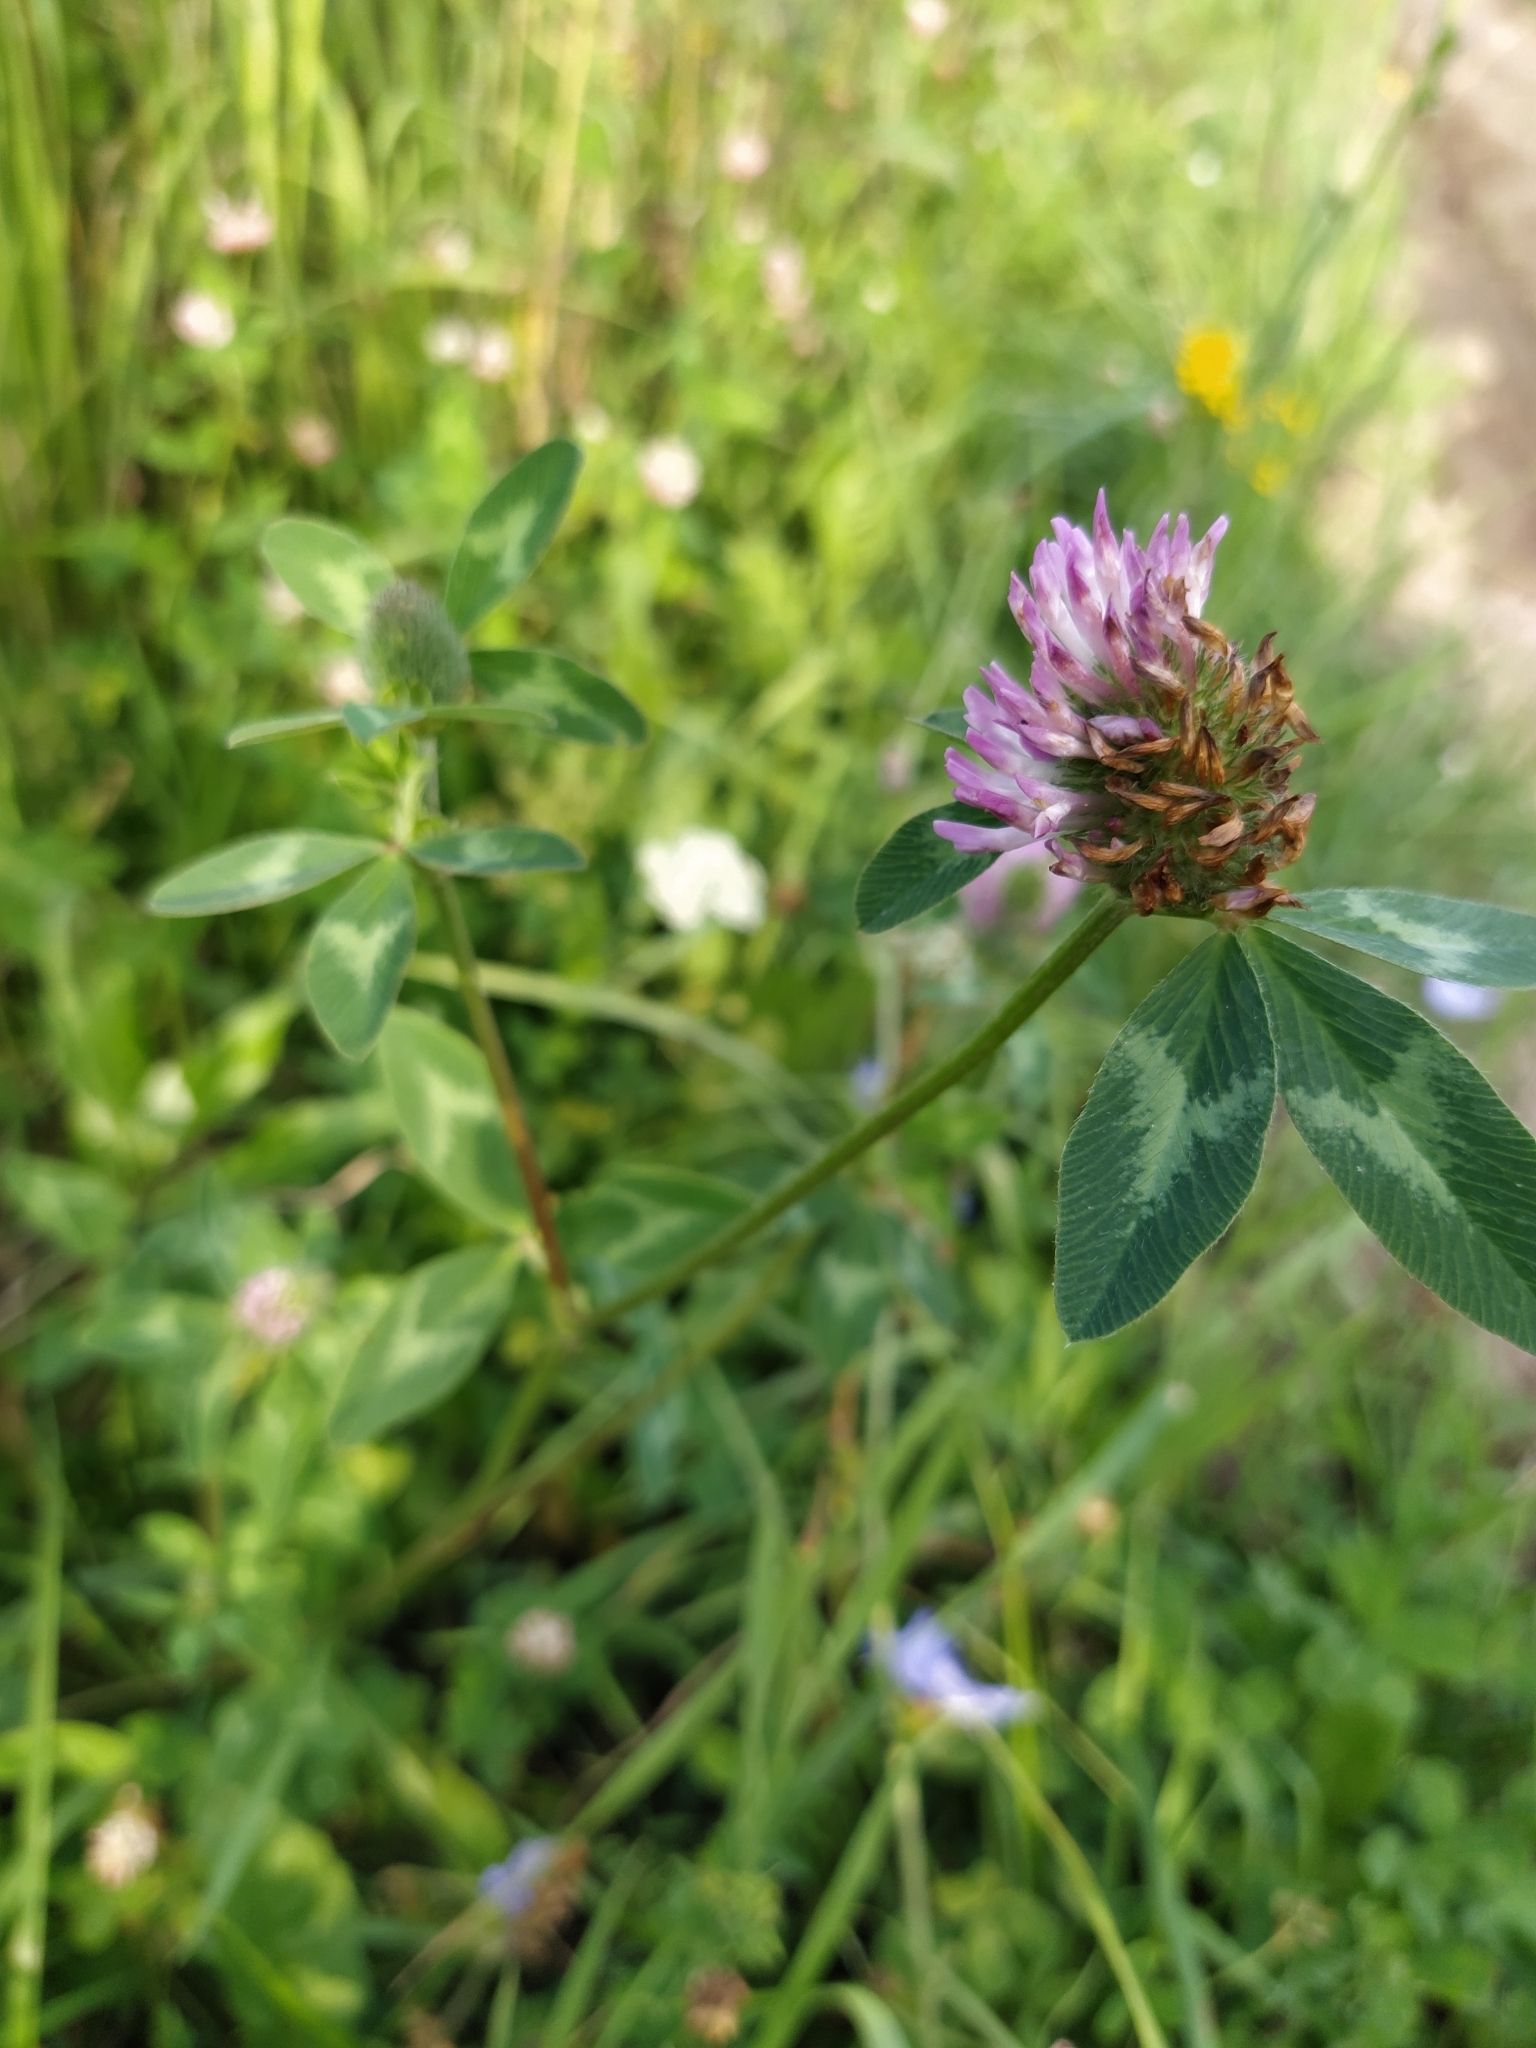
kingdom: Plantae
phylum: Tracheophyta
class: Magnoliopsida
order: Fabales
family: Fabaceae
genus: Trifolium
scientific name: Trifolium pratense
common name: Red clover
